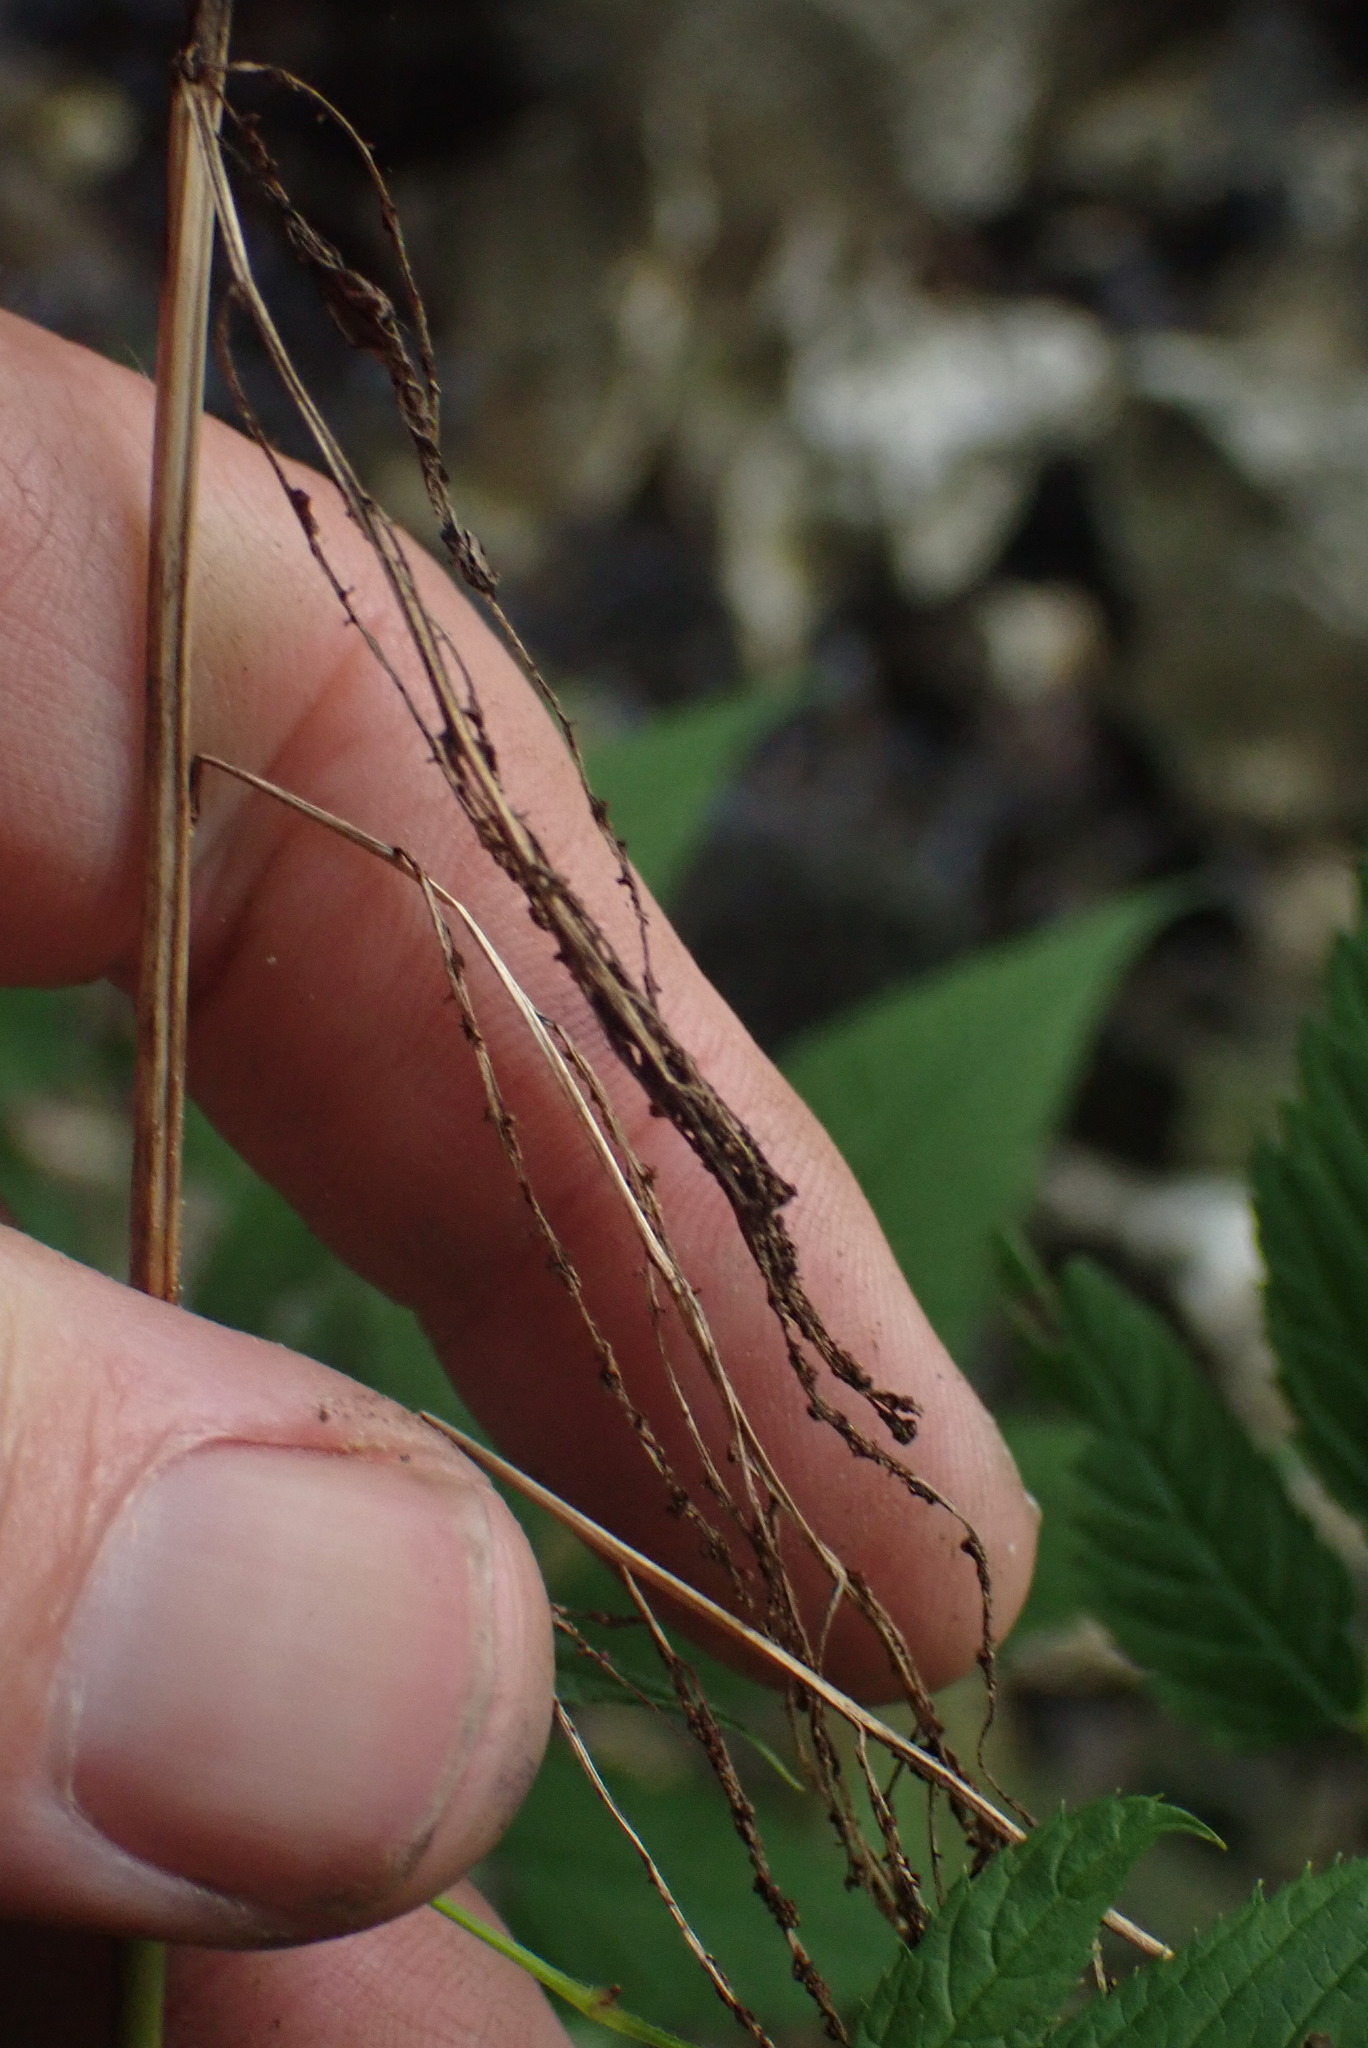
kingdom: Plantae
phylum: Tracheophyta
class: Magnoliopsida
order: Rosales
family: Rosaceae
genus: Aruncus
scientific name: Aruncus dioicus
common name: Buck's-beard
